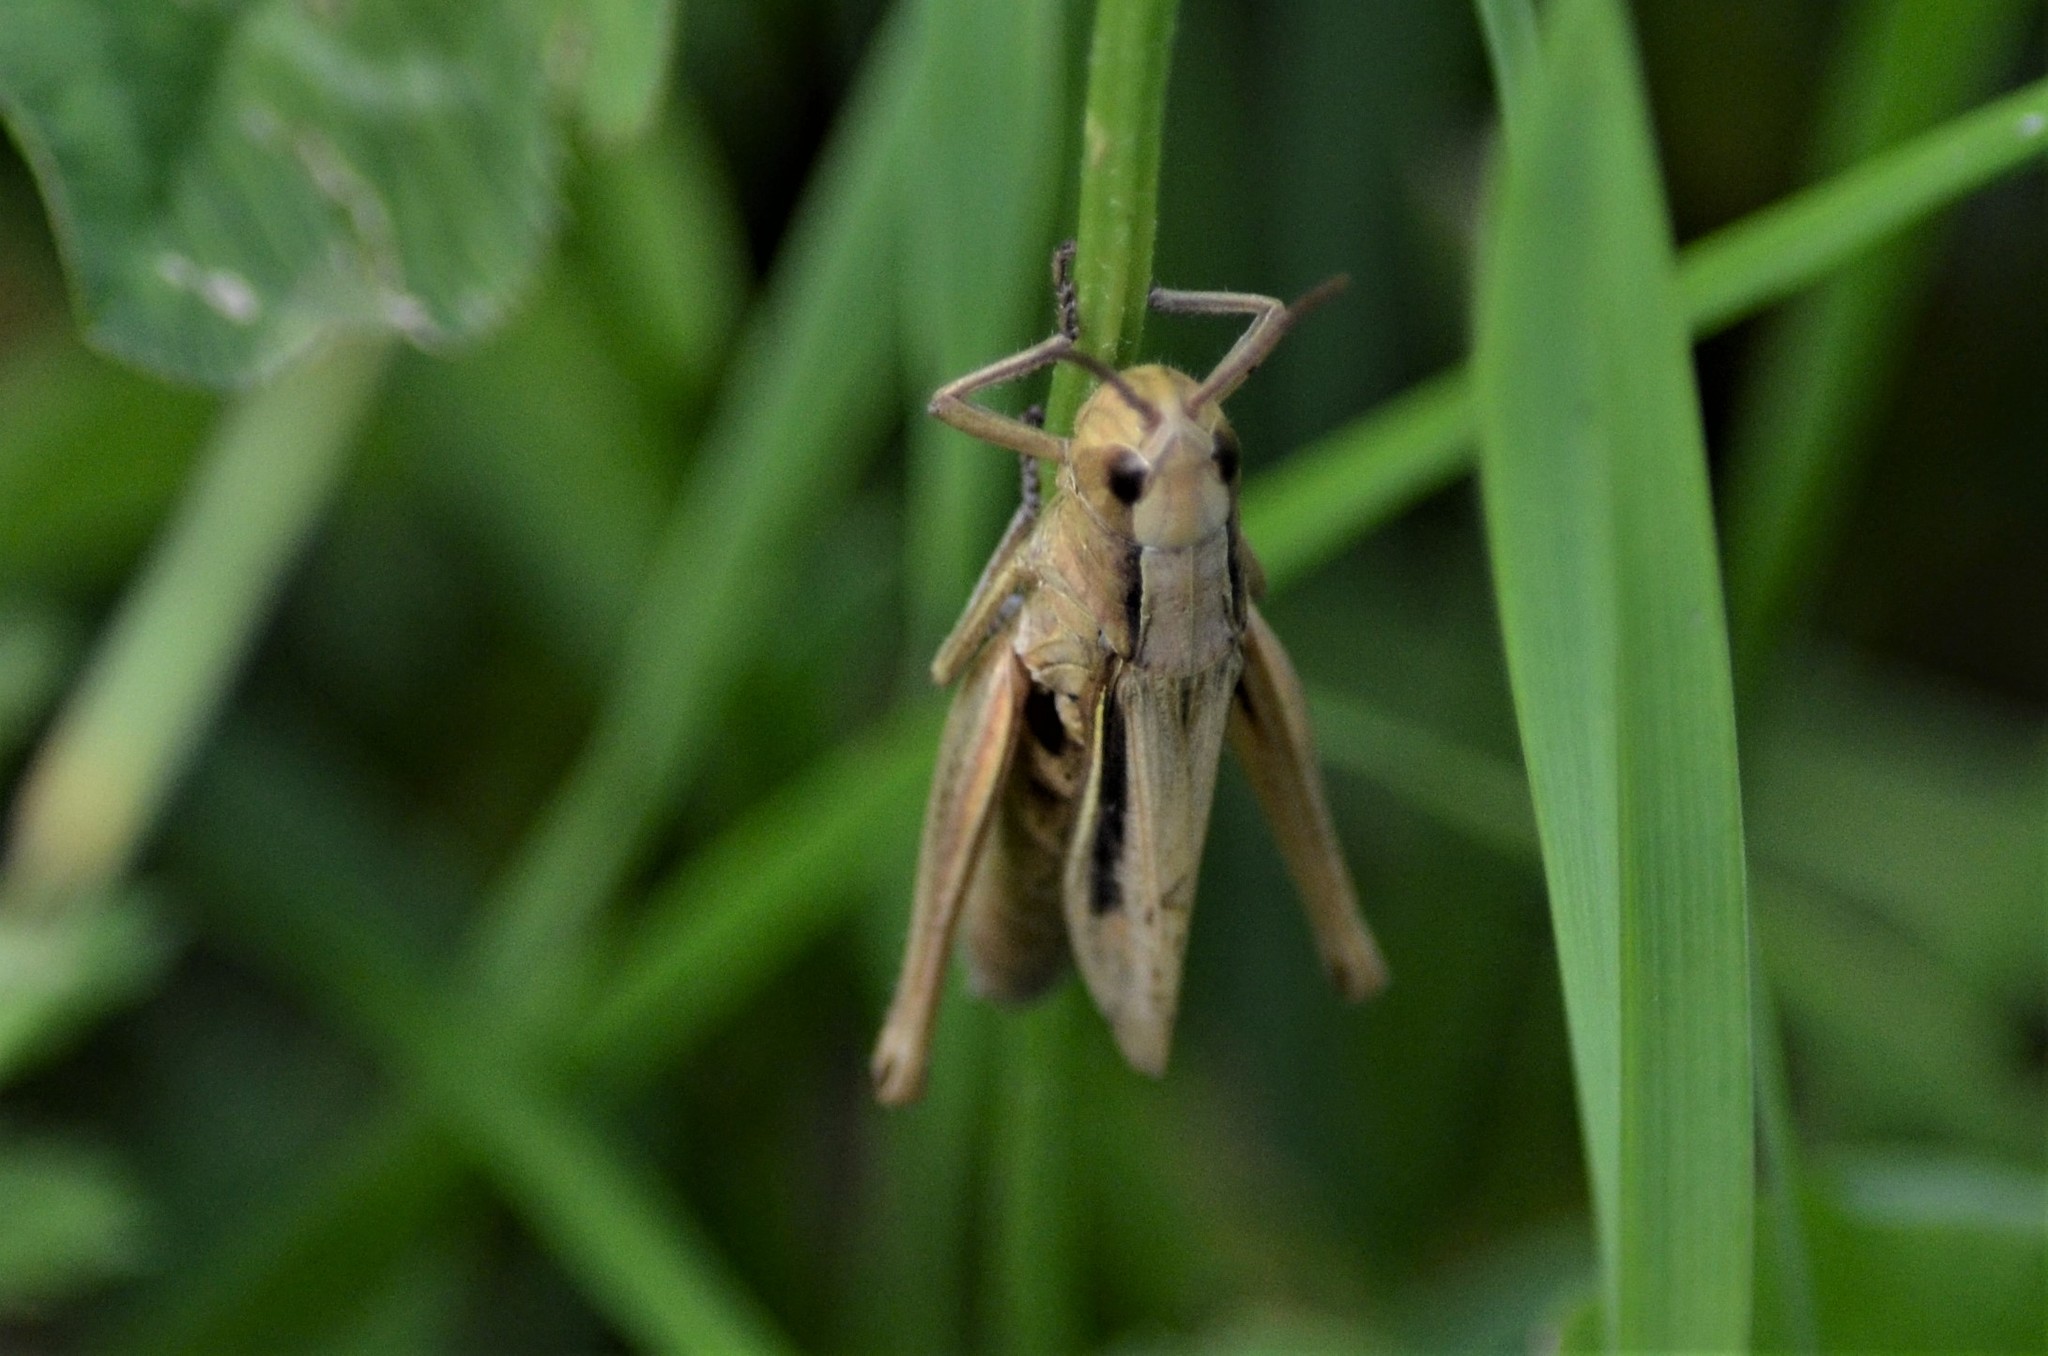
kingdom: Animalia
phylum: Arthropoda
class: Insecta
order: Orthoptera
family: Acrididae
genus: Chorthippus
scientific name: Chorthippus albomarginatus
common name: Lesser marsh grasshopper
